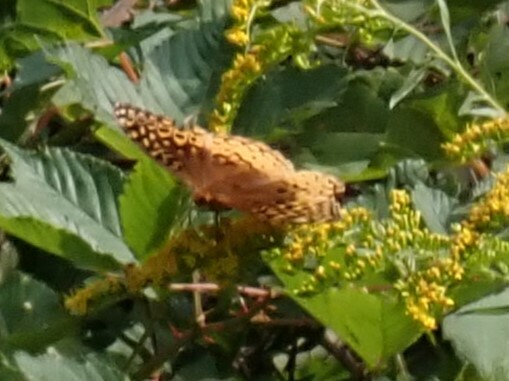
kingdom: Animalia
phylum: Arthropoda
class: Insecta
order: Lepidoptera
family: Nymphalidae
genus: Speyeria
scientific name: Speyeria cybele
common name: Great spangled fritillary
